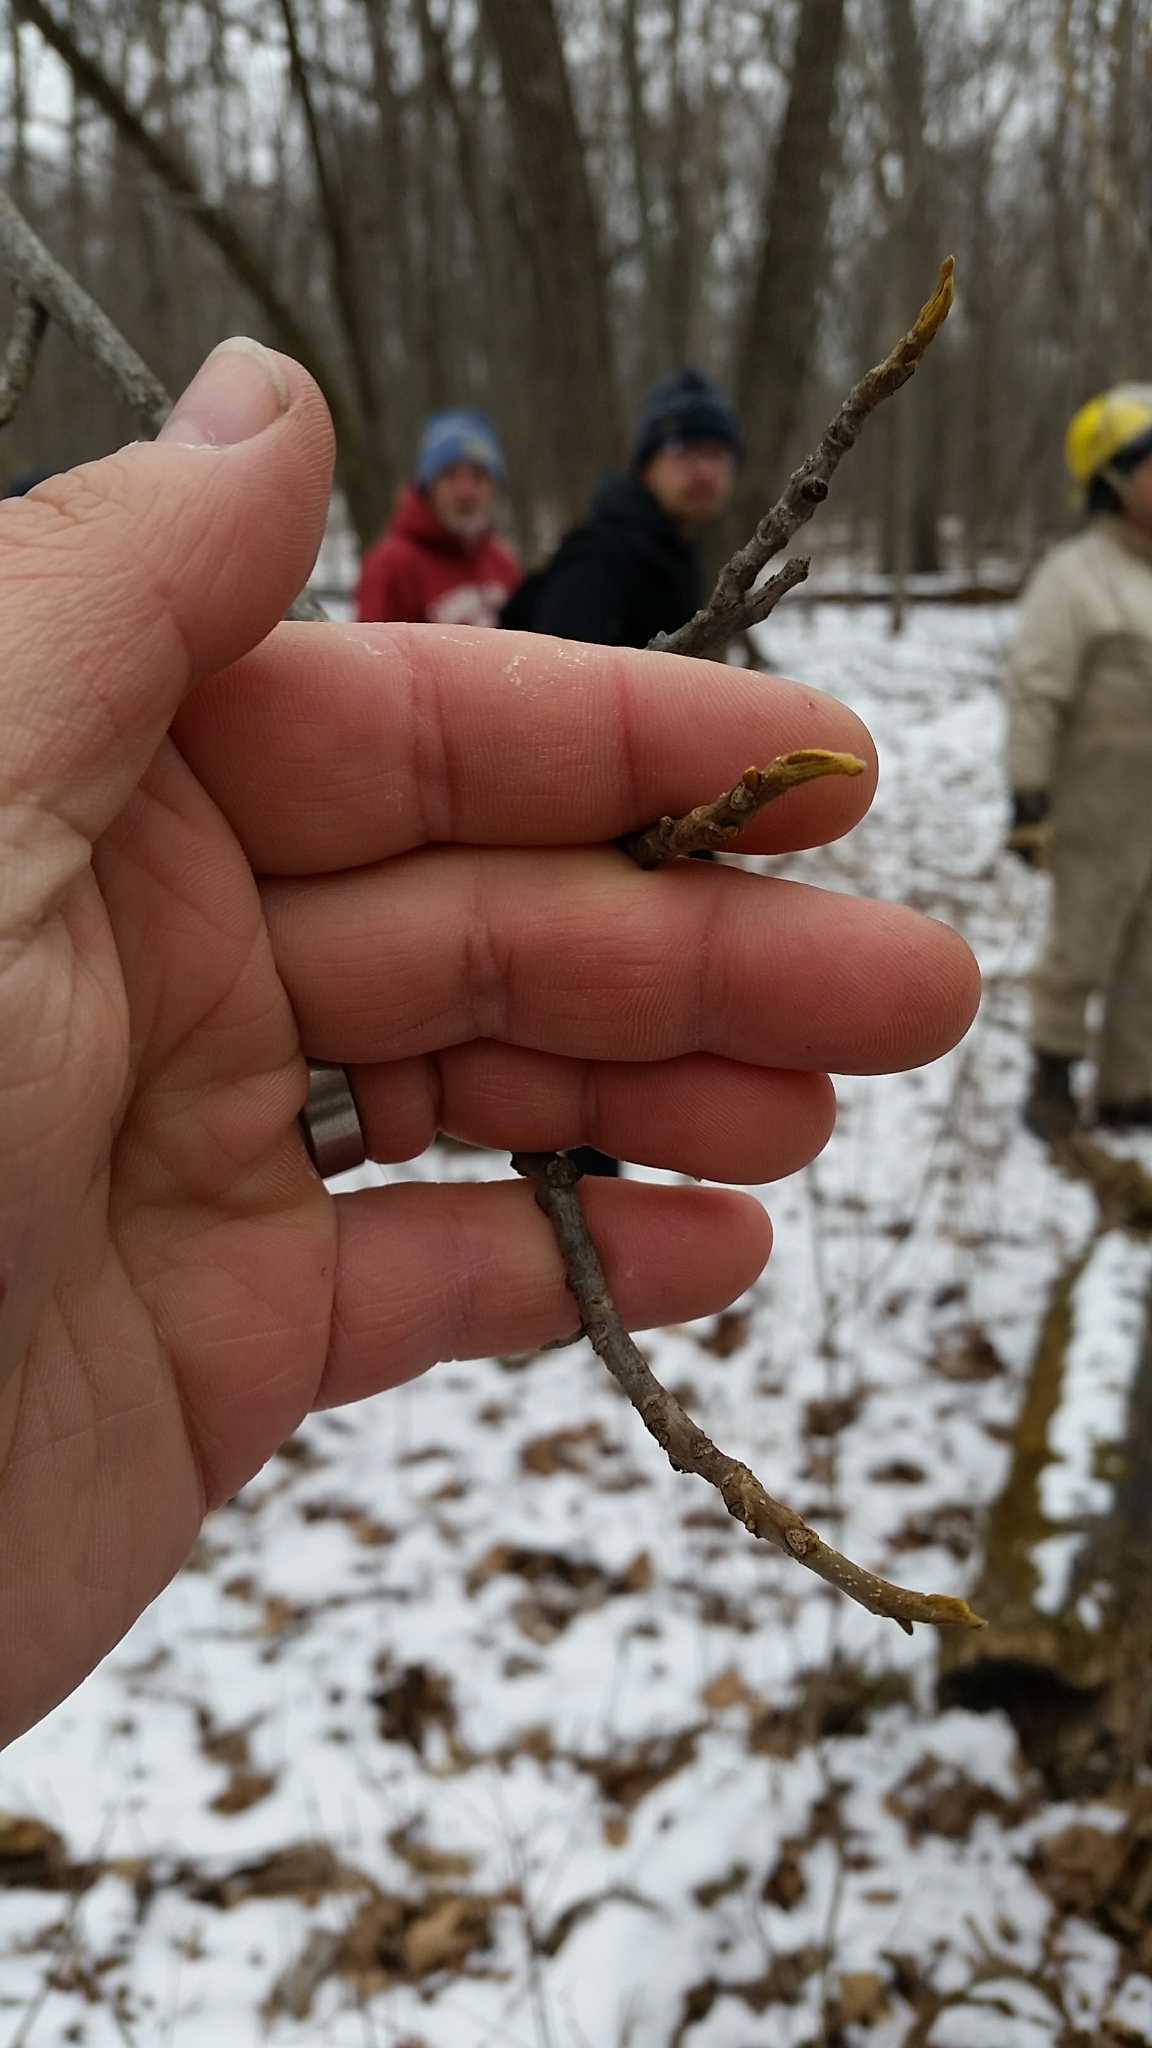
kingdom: Plantae
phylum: Tracheophyta
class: Magnoliopsida
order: Fagales
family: Juglandaceae
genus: Carya
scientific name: Carya cordiformis
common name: Bitternut hickory
